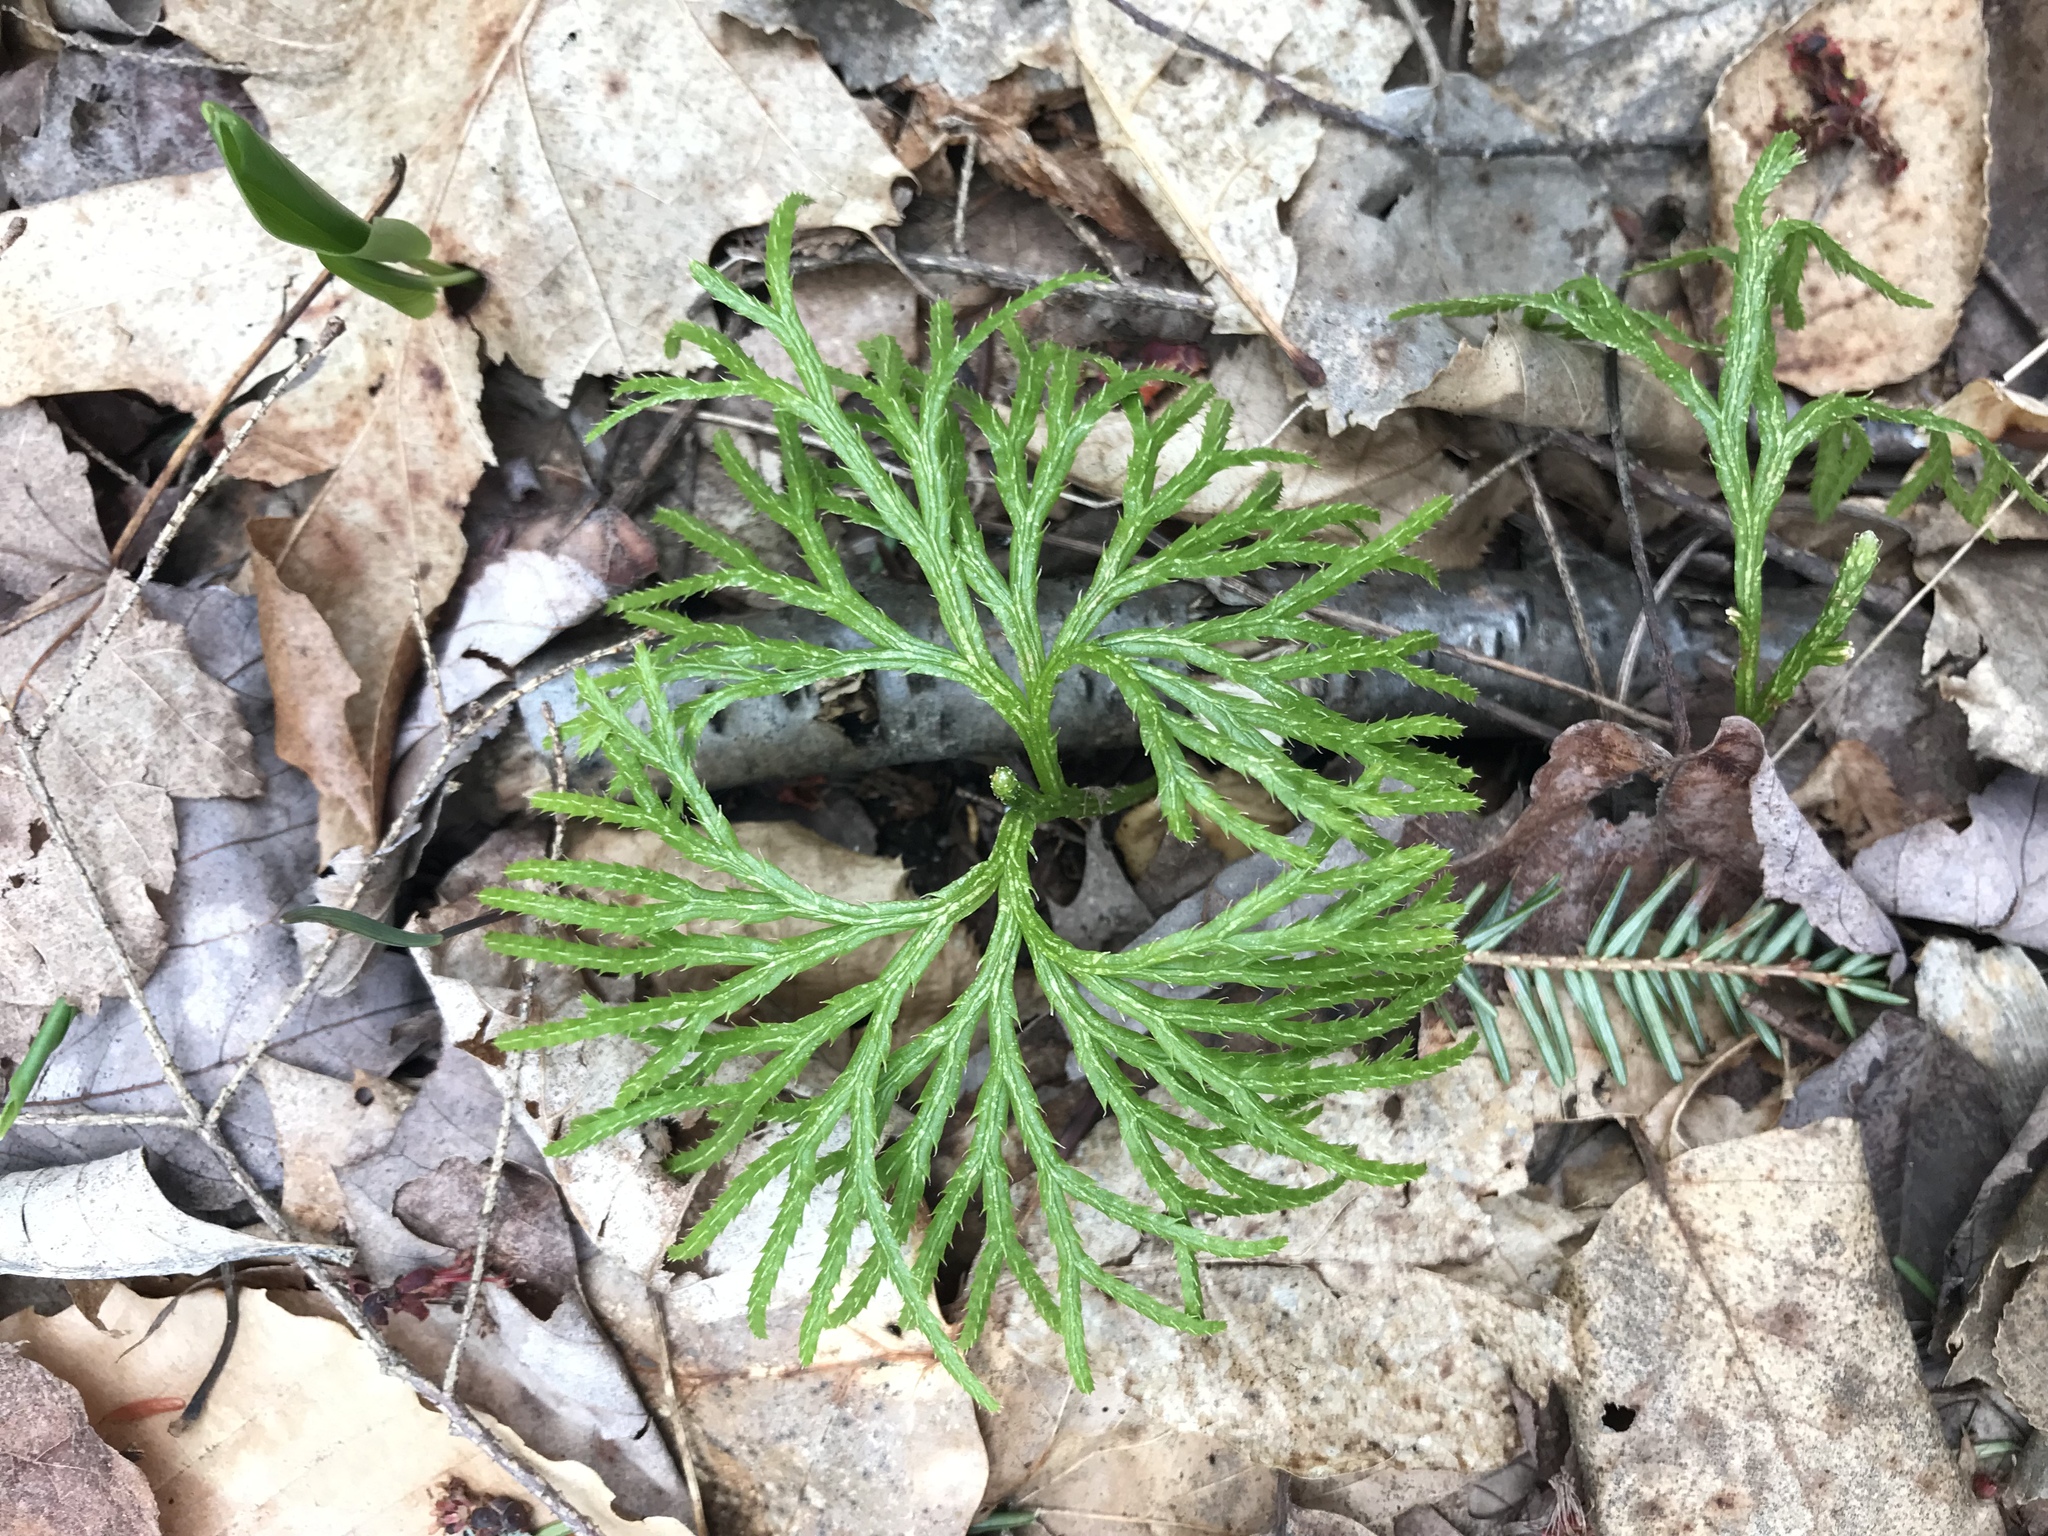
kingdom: Plantae
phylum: Tracheophyta
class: Lycopodiopsida
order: Lycopodiales
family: Lycopodiaceae
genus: Diphasiastrum
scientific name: Diphasiastrum digitatum
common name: Southern running-pine
